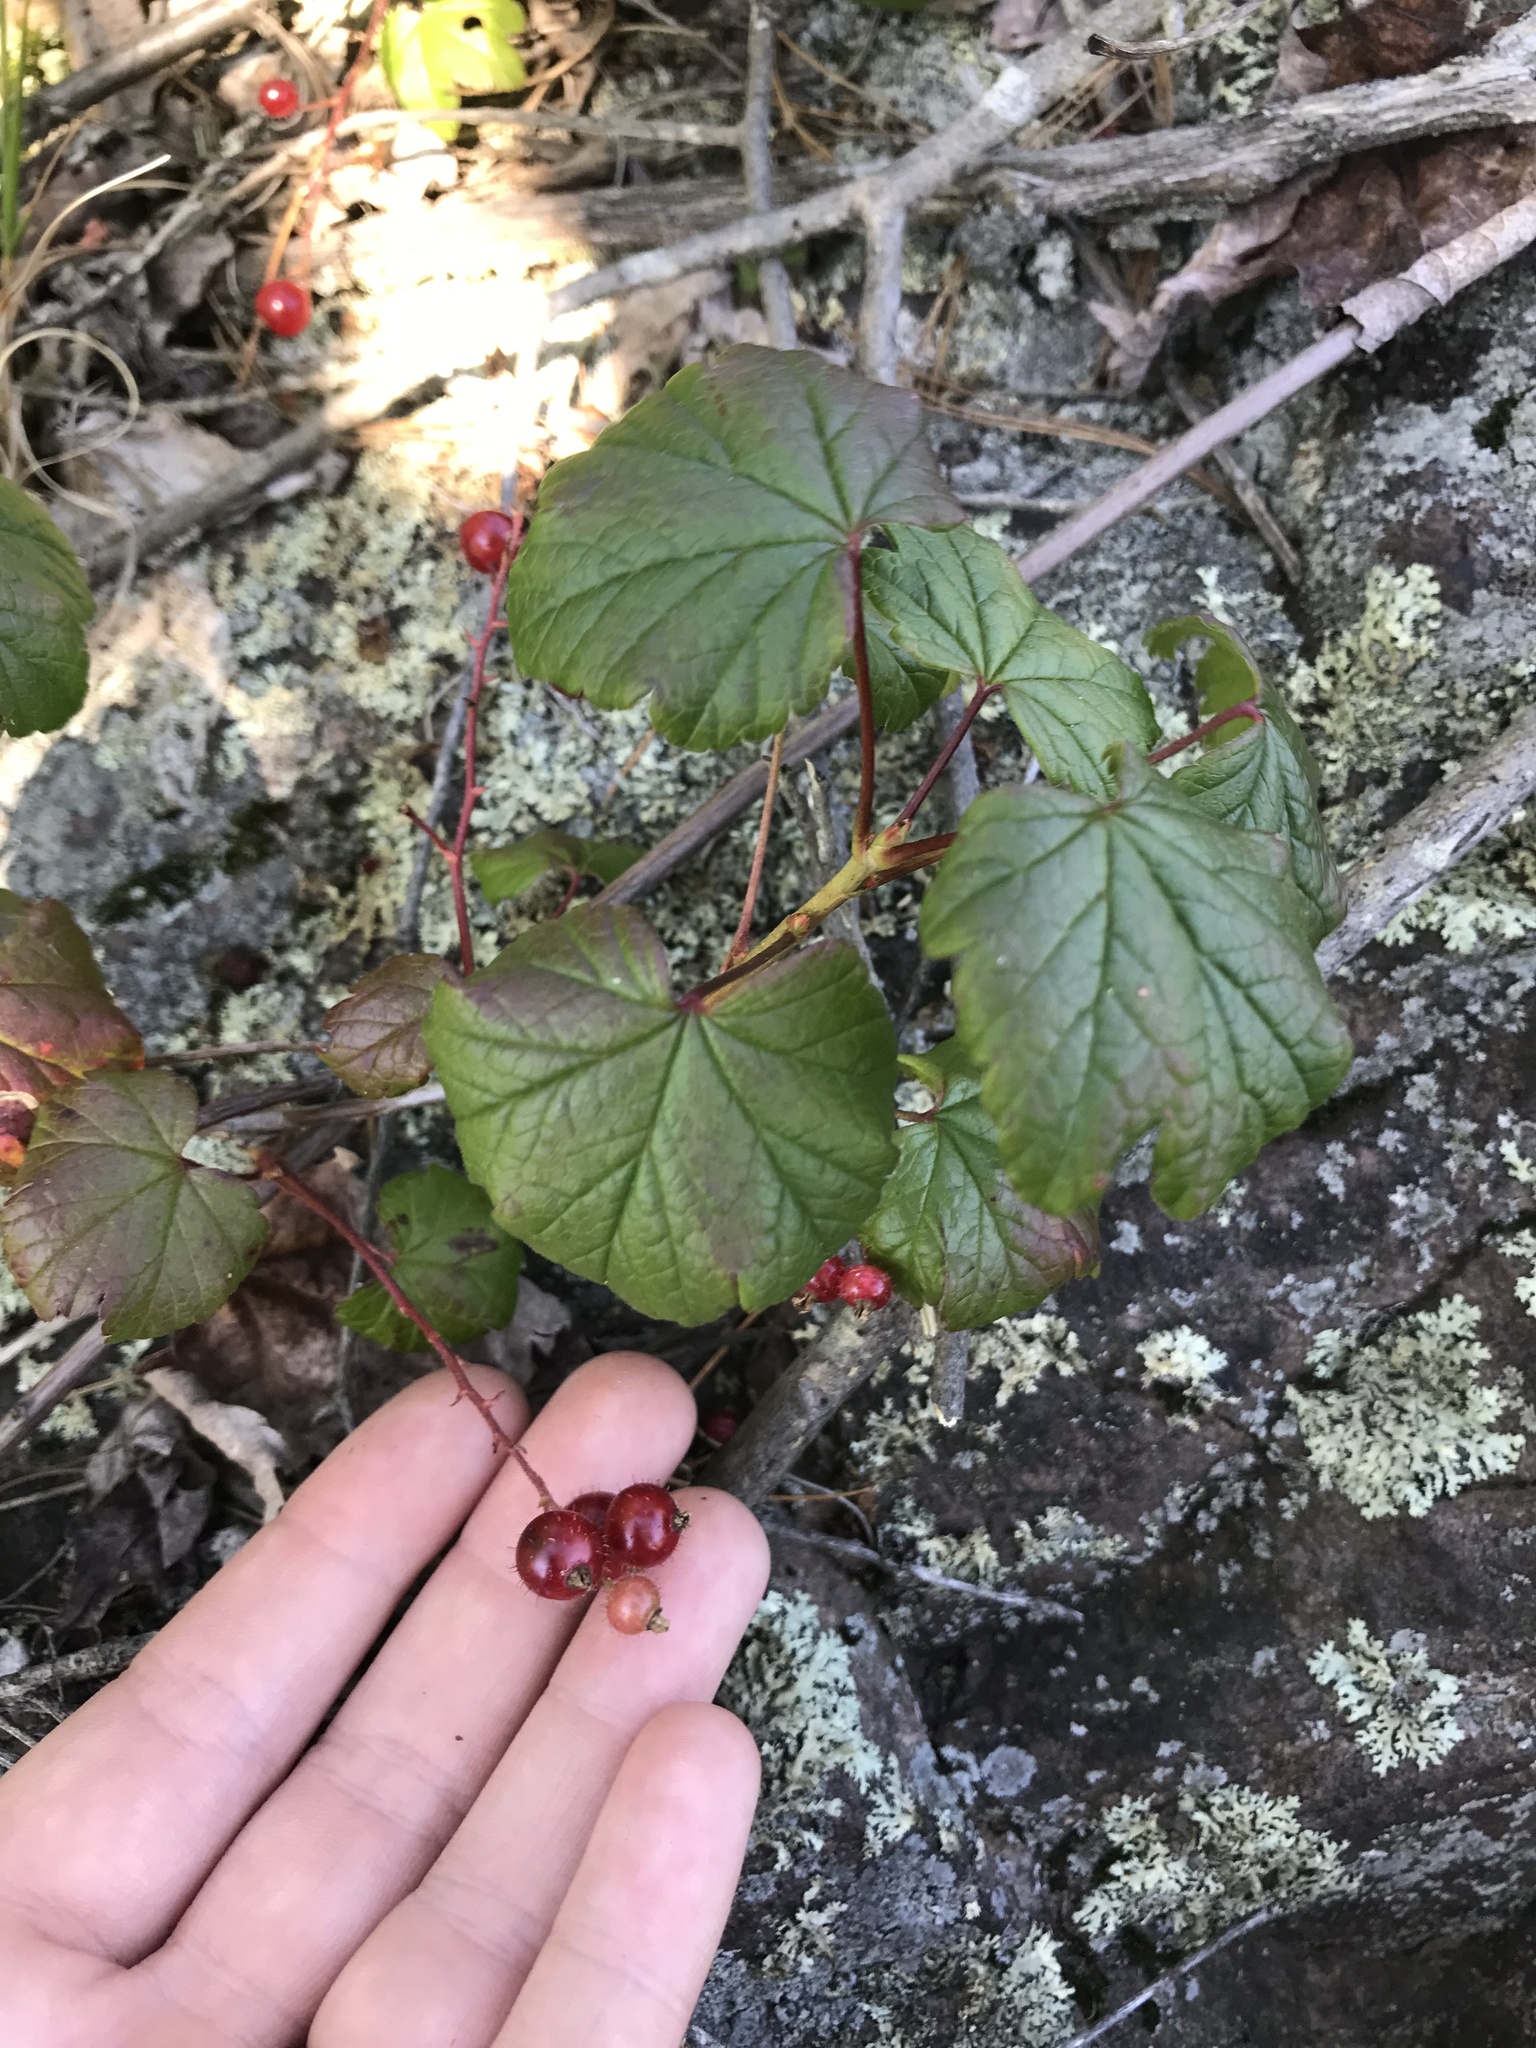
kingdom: Plantae
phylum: Tracheophyta
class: Magnoliopsida
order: Saxifragales
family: Grossulariaceae
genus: Ribes
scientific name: Ribes glandulosum
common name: Skunk currant
